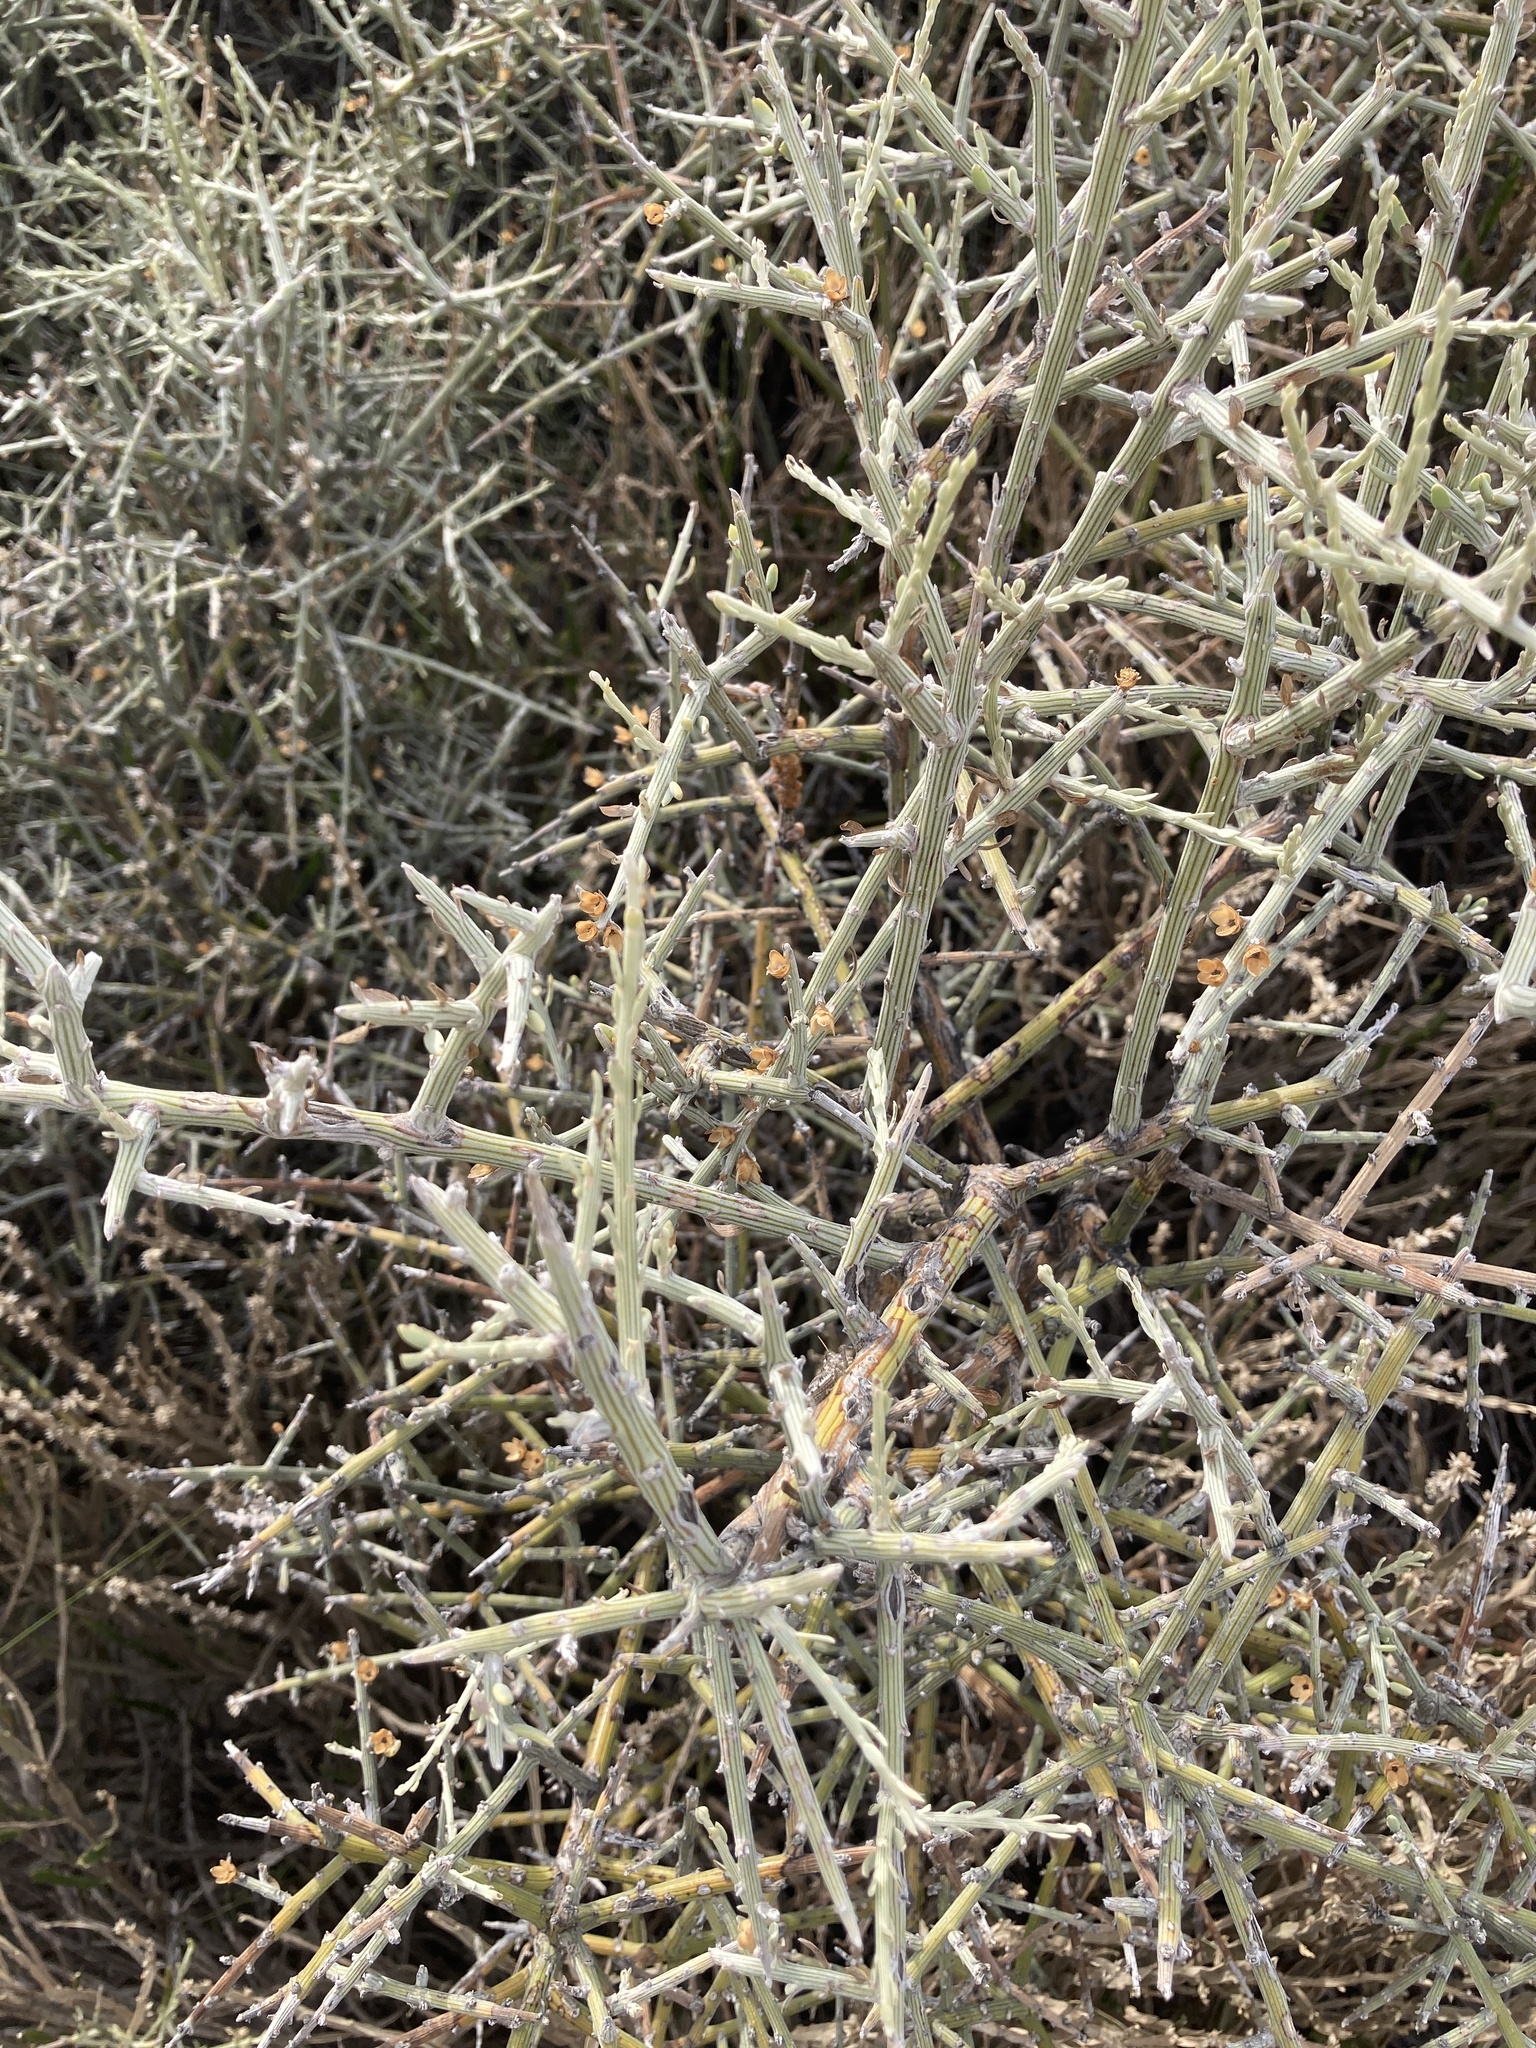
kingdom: Plantae
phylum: Tracheophyta
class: Magnoliopsida
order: Asterales
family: Asteraceae
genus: Cyclolepis
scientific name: Cyclolepis genistoides
